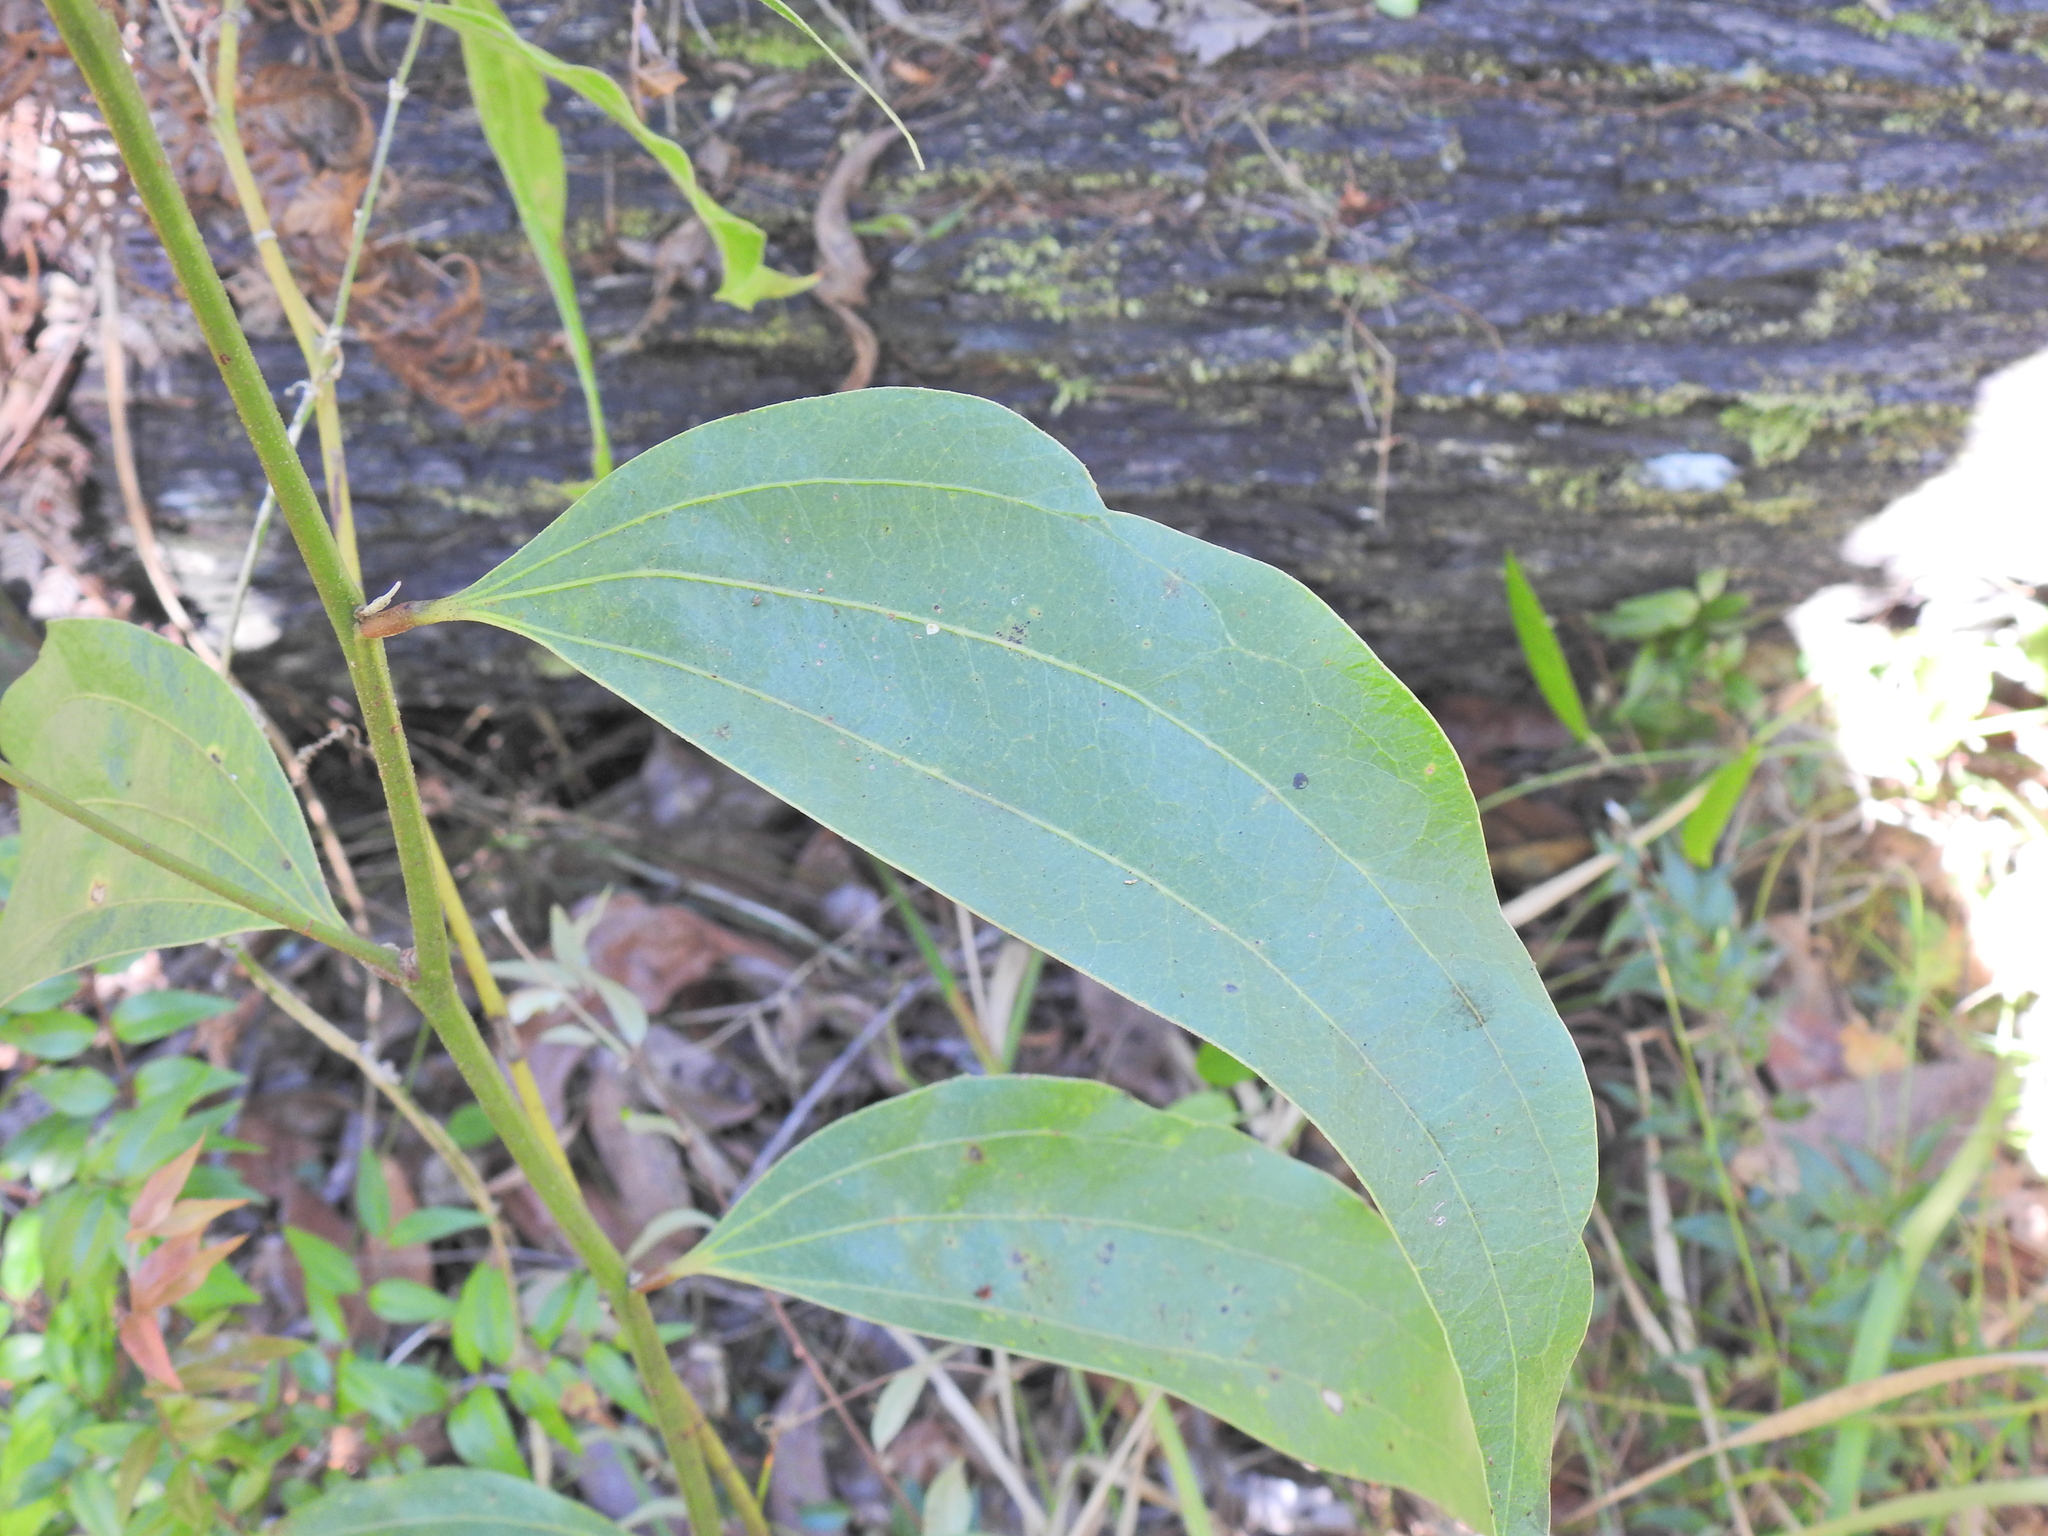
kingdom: Plantae
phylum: Tracheophyta
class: Magnoliopsida
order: Fabales
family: Fabaceae
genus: Acacia
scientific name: Acacia flavescens
